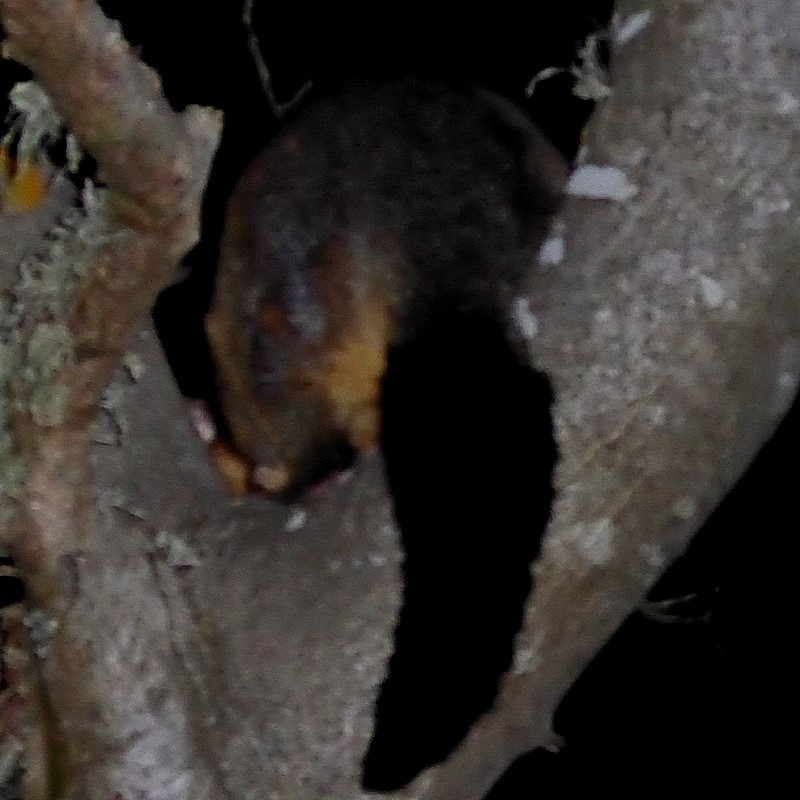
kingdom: Animalia
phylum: Chordata
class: Mammalia
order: Diprotodontia
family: Phalangeridae
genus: Trichosurus
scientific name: Trichosurus vulpecula
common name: Common brushtail
